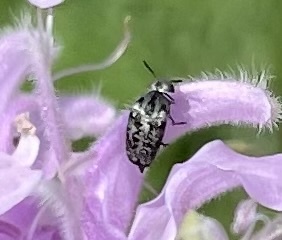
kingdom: Animalia
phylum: Arthropoda
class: Insecta
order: Coleoptera
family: Mordellidae
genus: Mordella
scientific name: Mordella marginata
